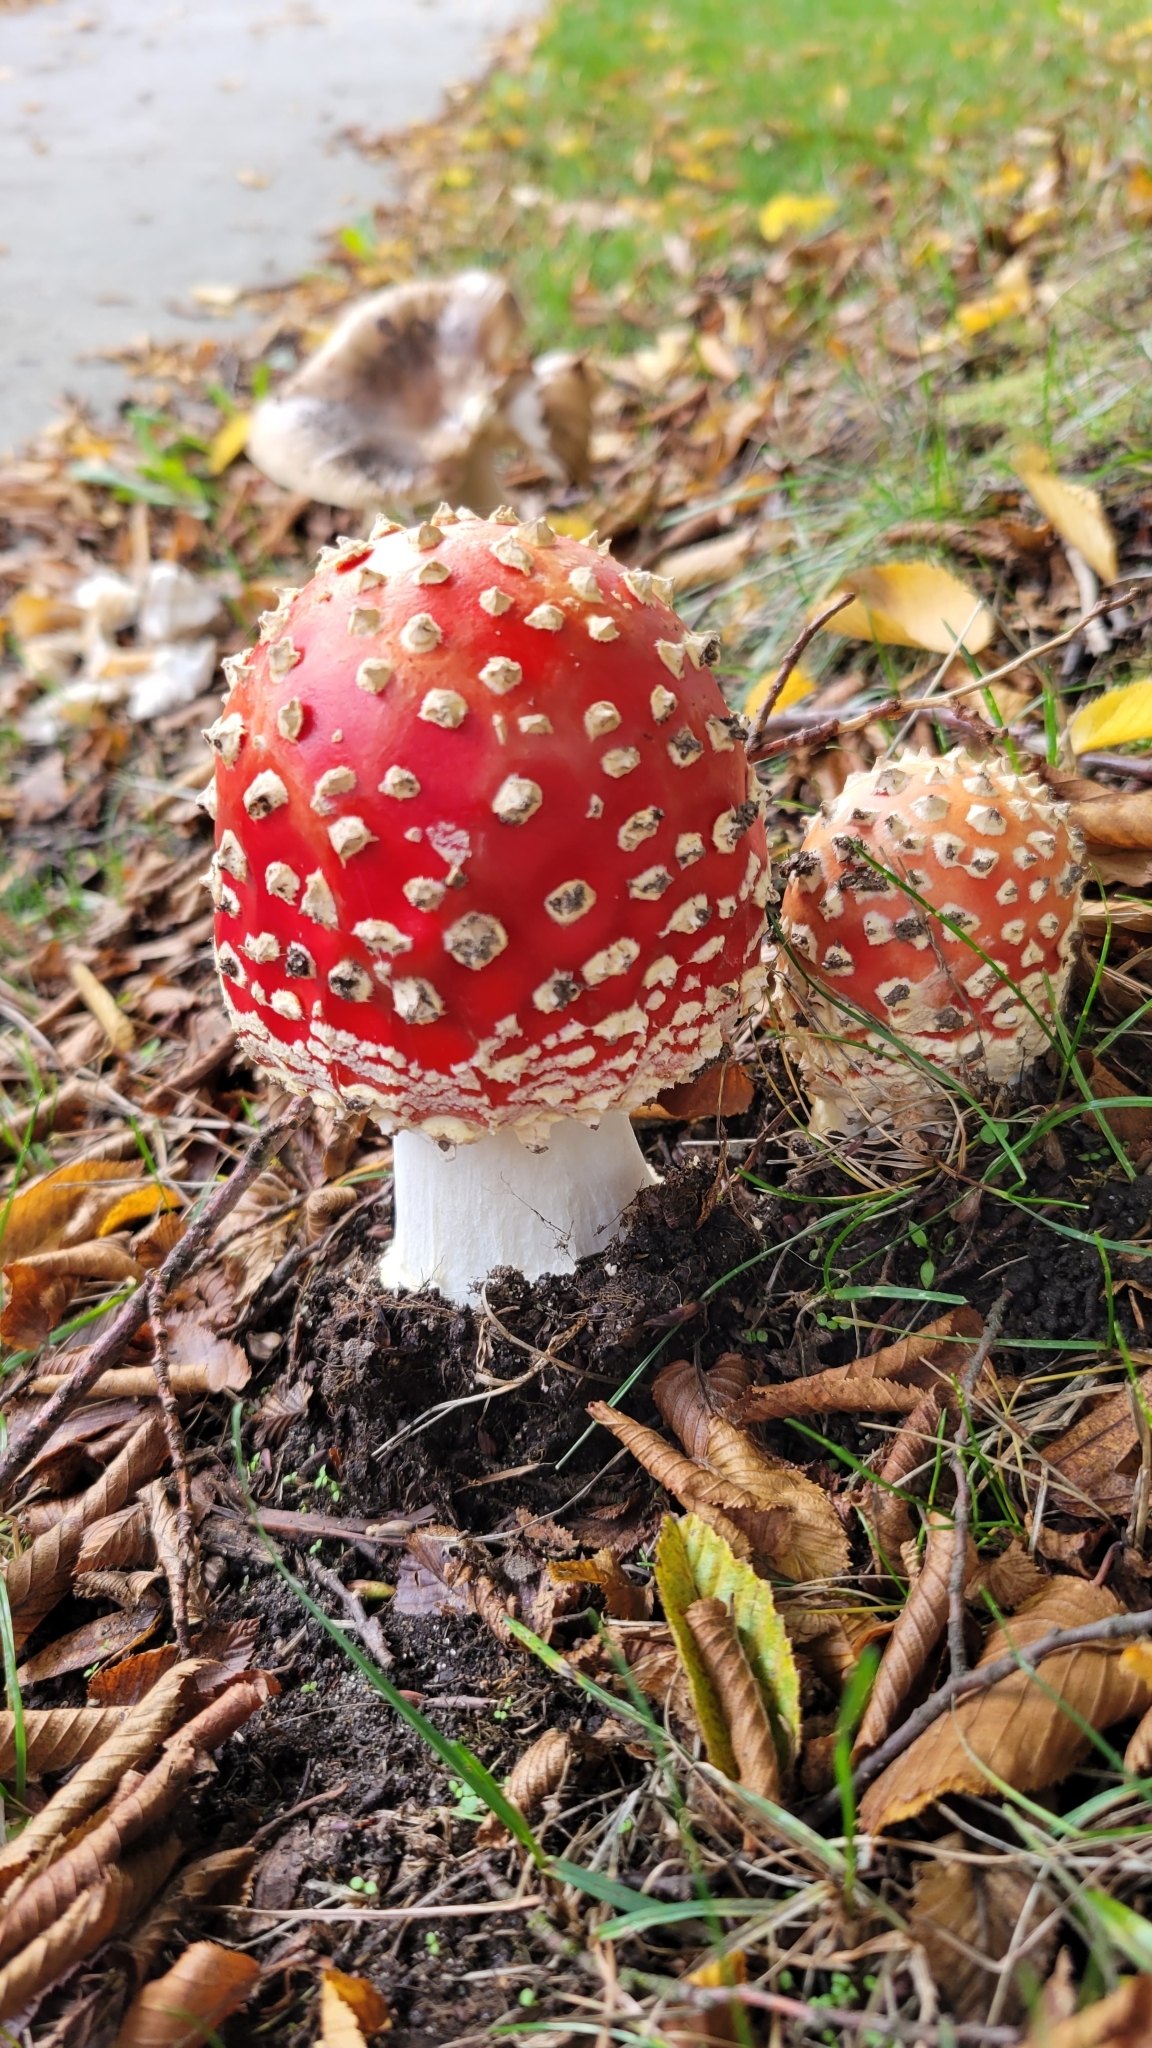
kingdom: Fungi
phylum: Basidiomycota
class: Agaricomycetes
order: Agaricales
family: Amanitaceae
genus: Amanita
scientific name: Amanita muscaria
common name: Fly agaric
